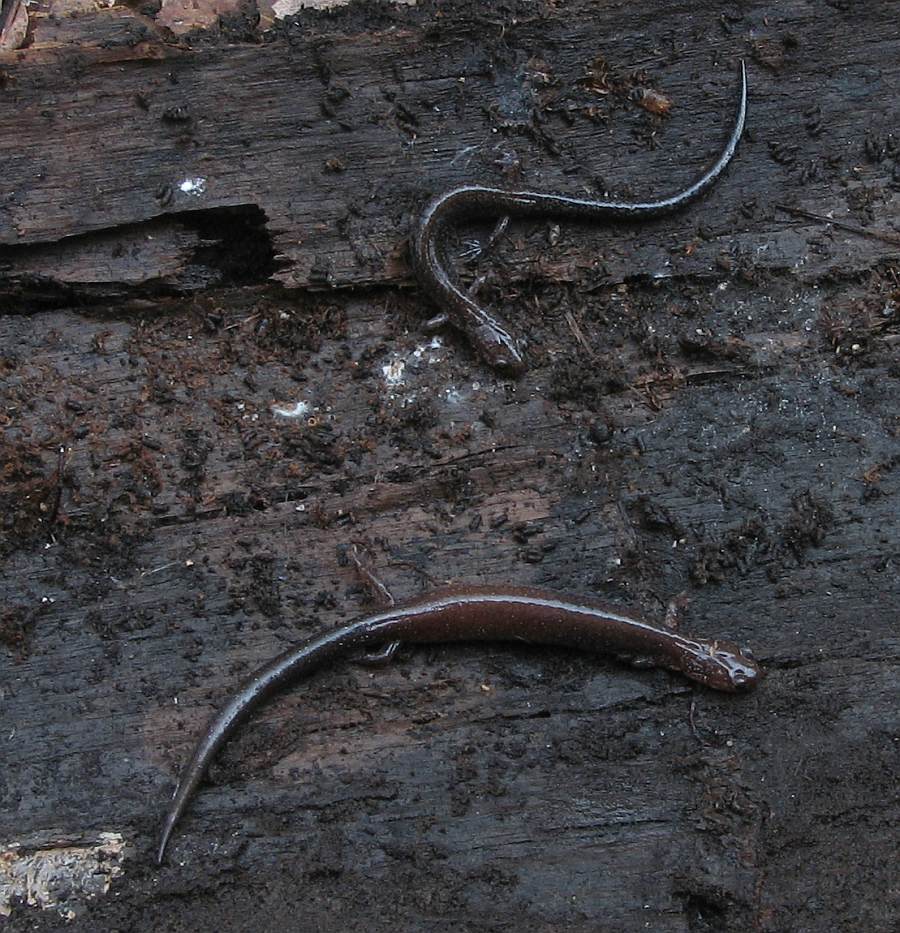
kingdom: Animalia
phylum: Chordata
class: Amphibia
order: Caudata
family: Plethodontidae
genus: Plethodon
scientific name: Plethodon cinereus
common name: Redback salamander
